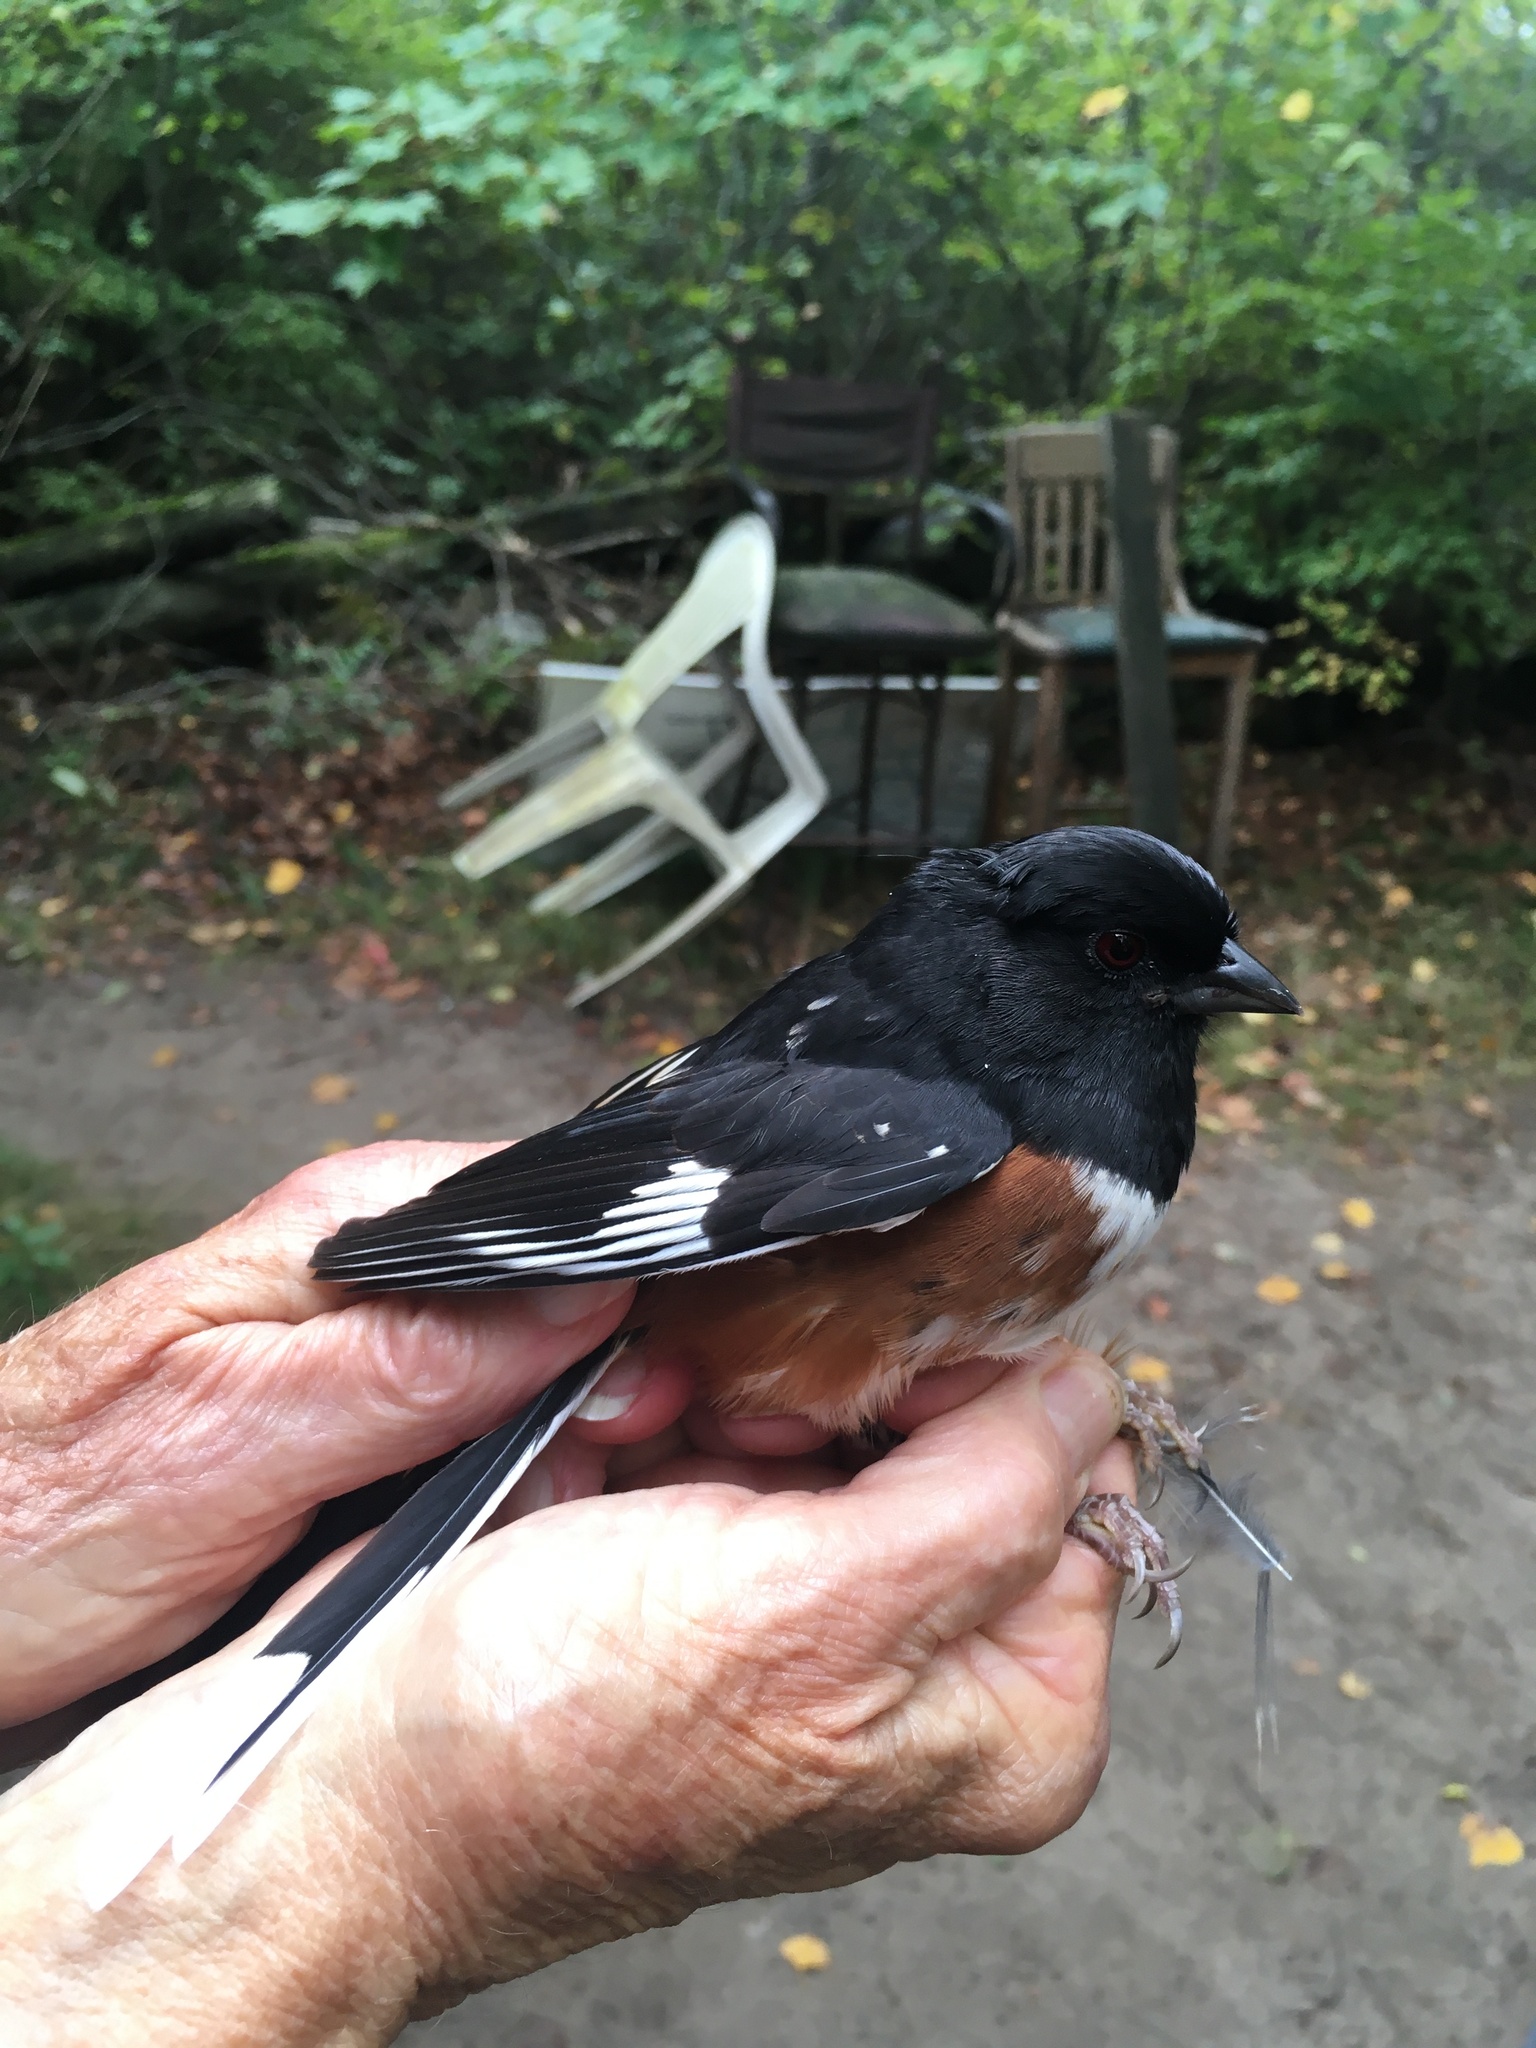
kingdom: Animalia
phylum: Chordata
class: Aves
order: Passeriformes
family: Passerellidae
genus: Pipilo
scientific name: Pipilo erythrophthalmus
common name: Eastern towhee
